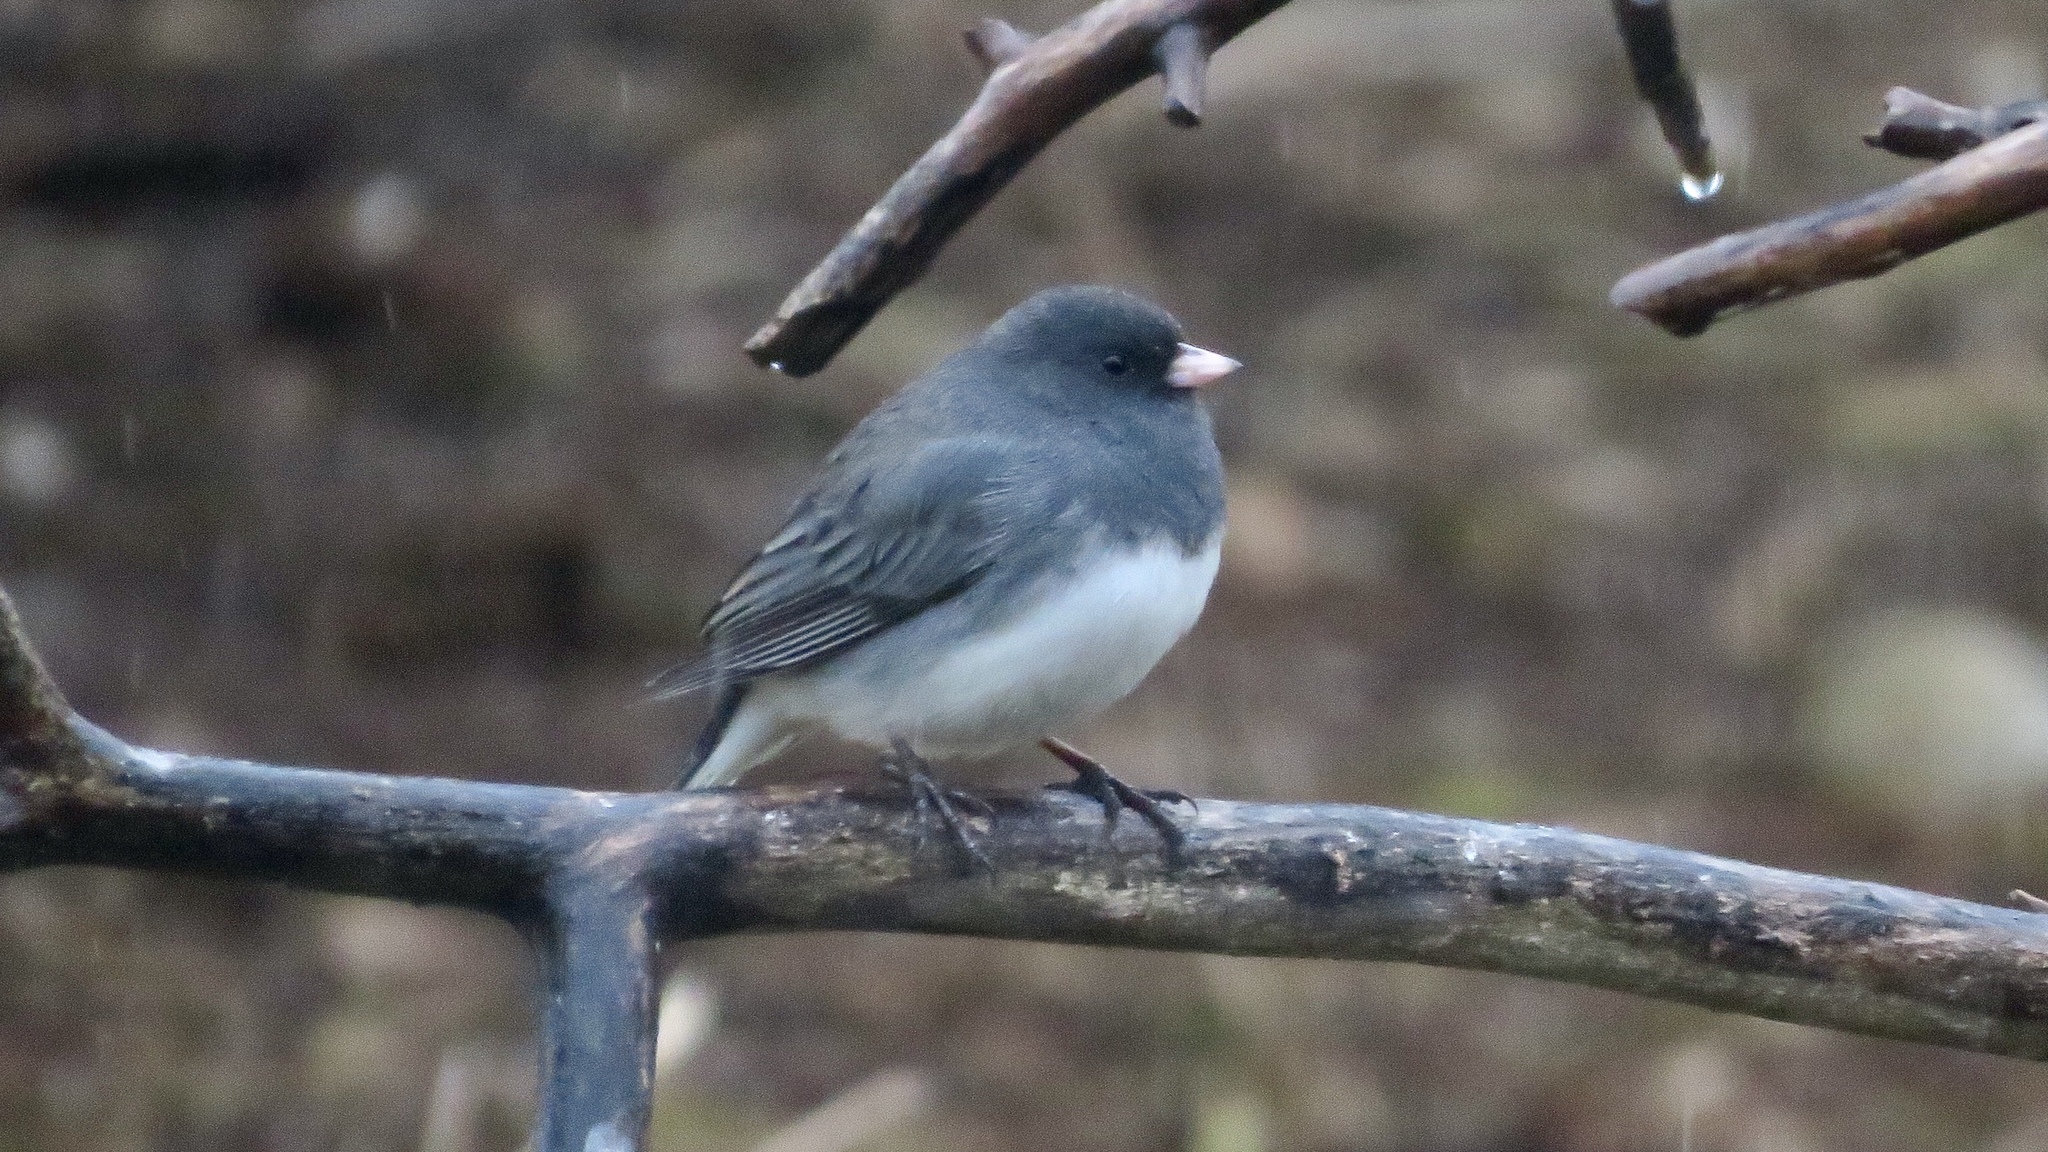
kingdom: Animalia
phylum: Chordata
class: Aves
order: Passeriformes
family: Passerellidae
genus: Junco
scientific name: Junco hyemalis
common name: Dark-eyed junco
